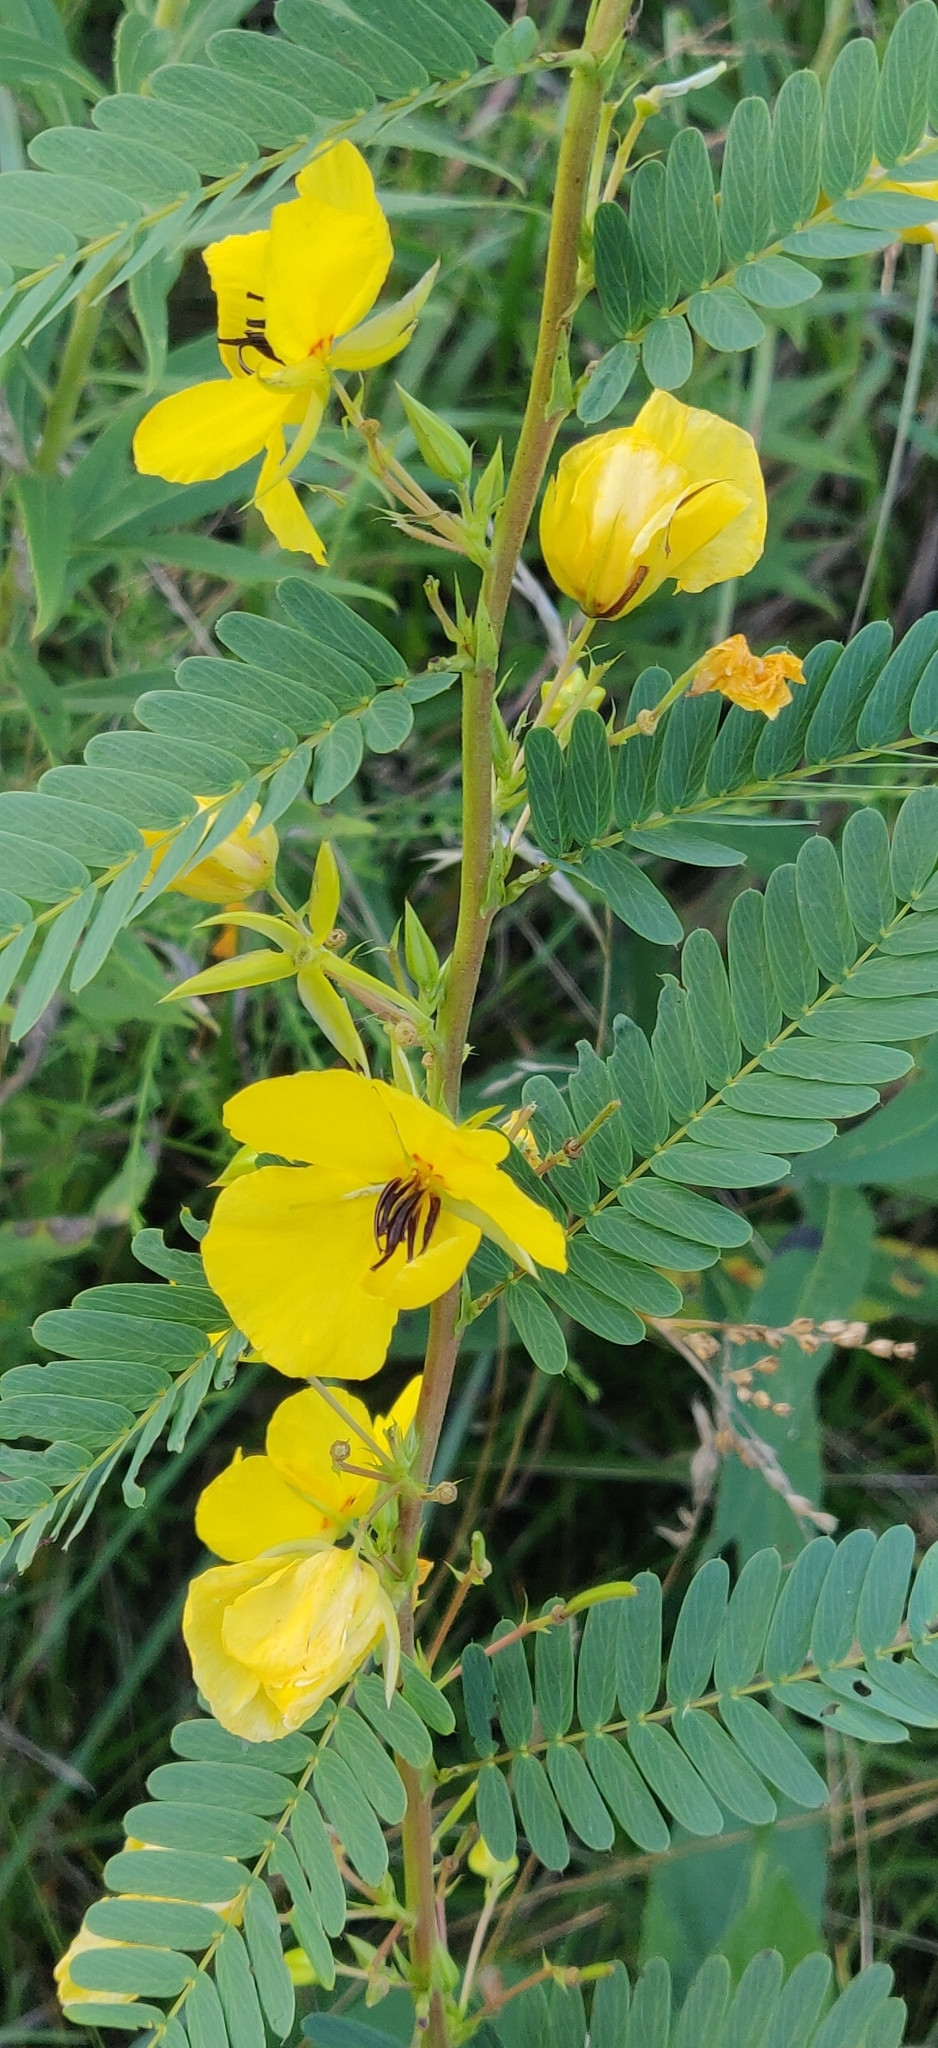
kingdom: Plantae
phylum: Tracheophyta
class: Magnoliopsida
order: Fabales
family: Fabaceae
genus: Chamaecrista
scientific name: Chamaecrista fasciculata
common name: Golden cassia
